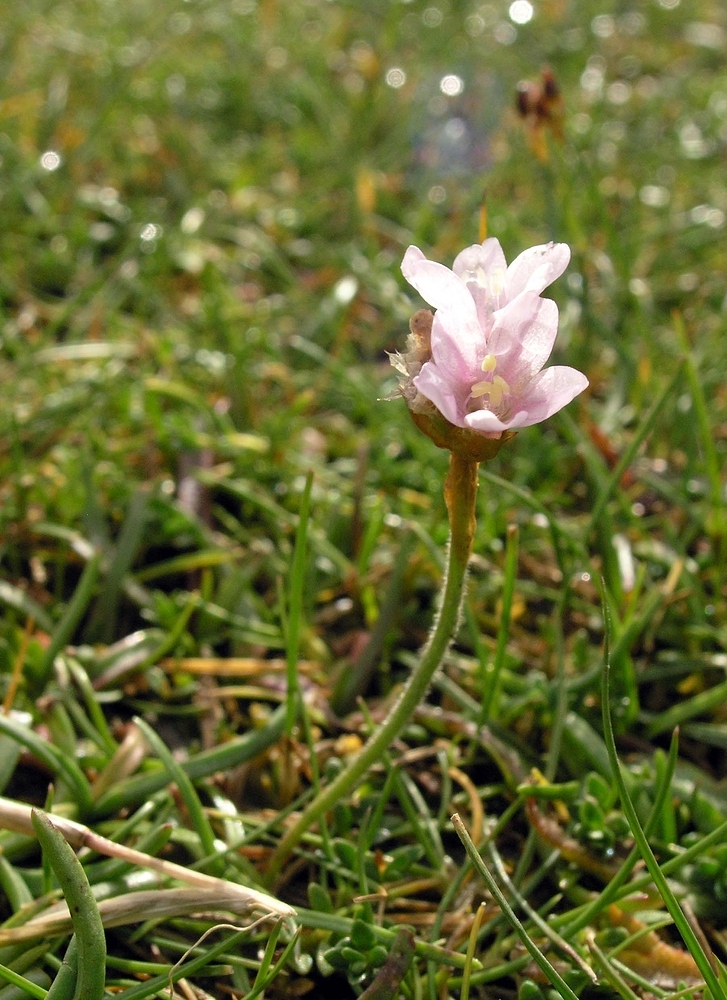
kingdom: Plantae
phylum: Tracheophyta
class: Magnoliopsida
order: Caryophyllales
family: Plumbaginaceae
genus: Armeria
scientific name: Armeria maritima
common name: Thrift
